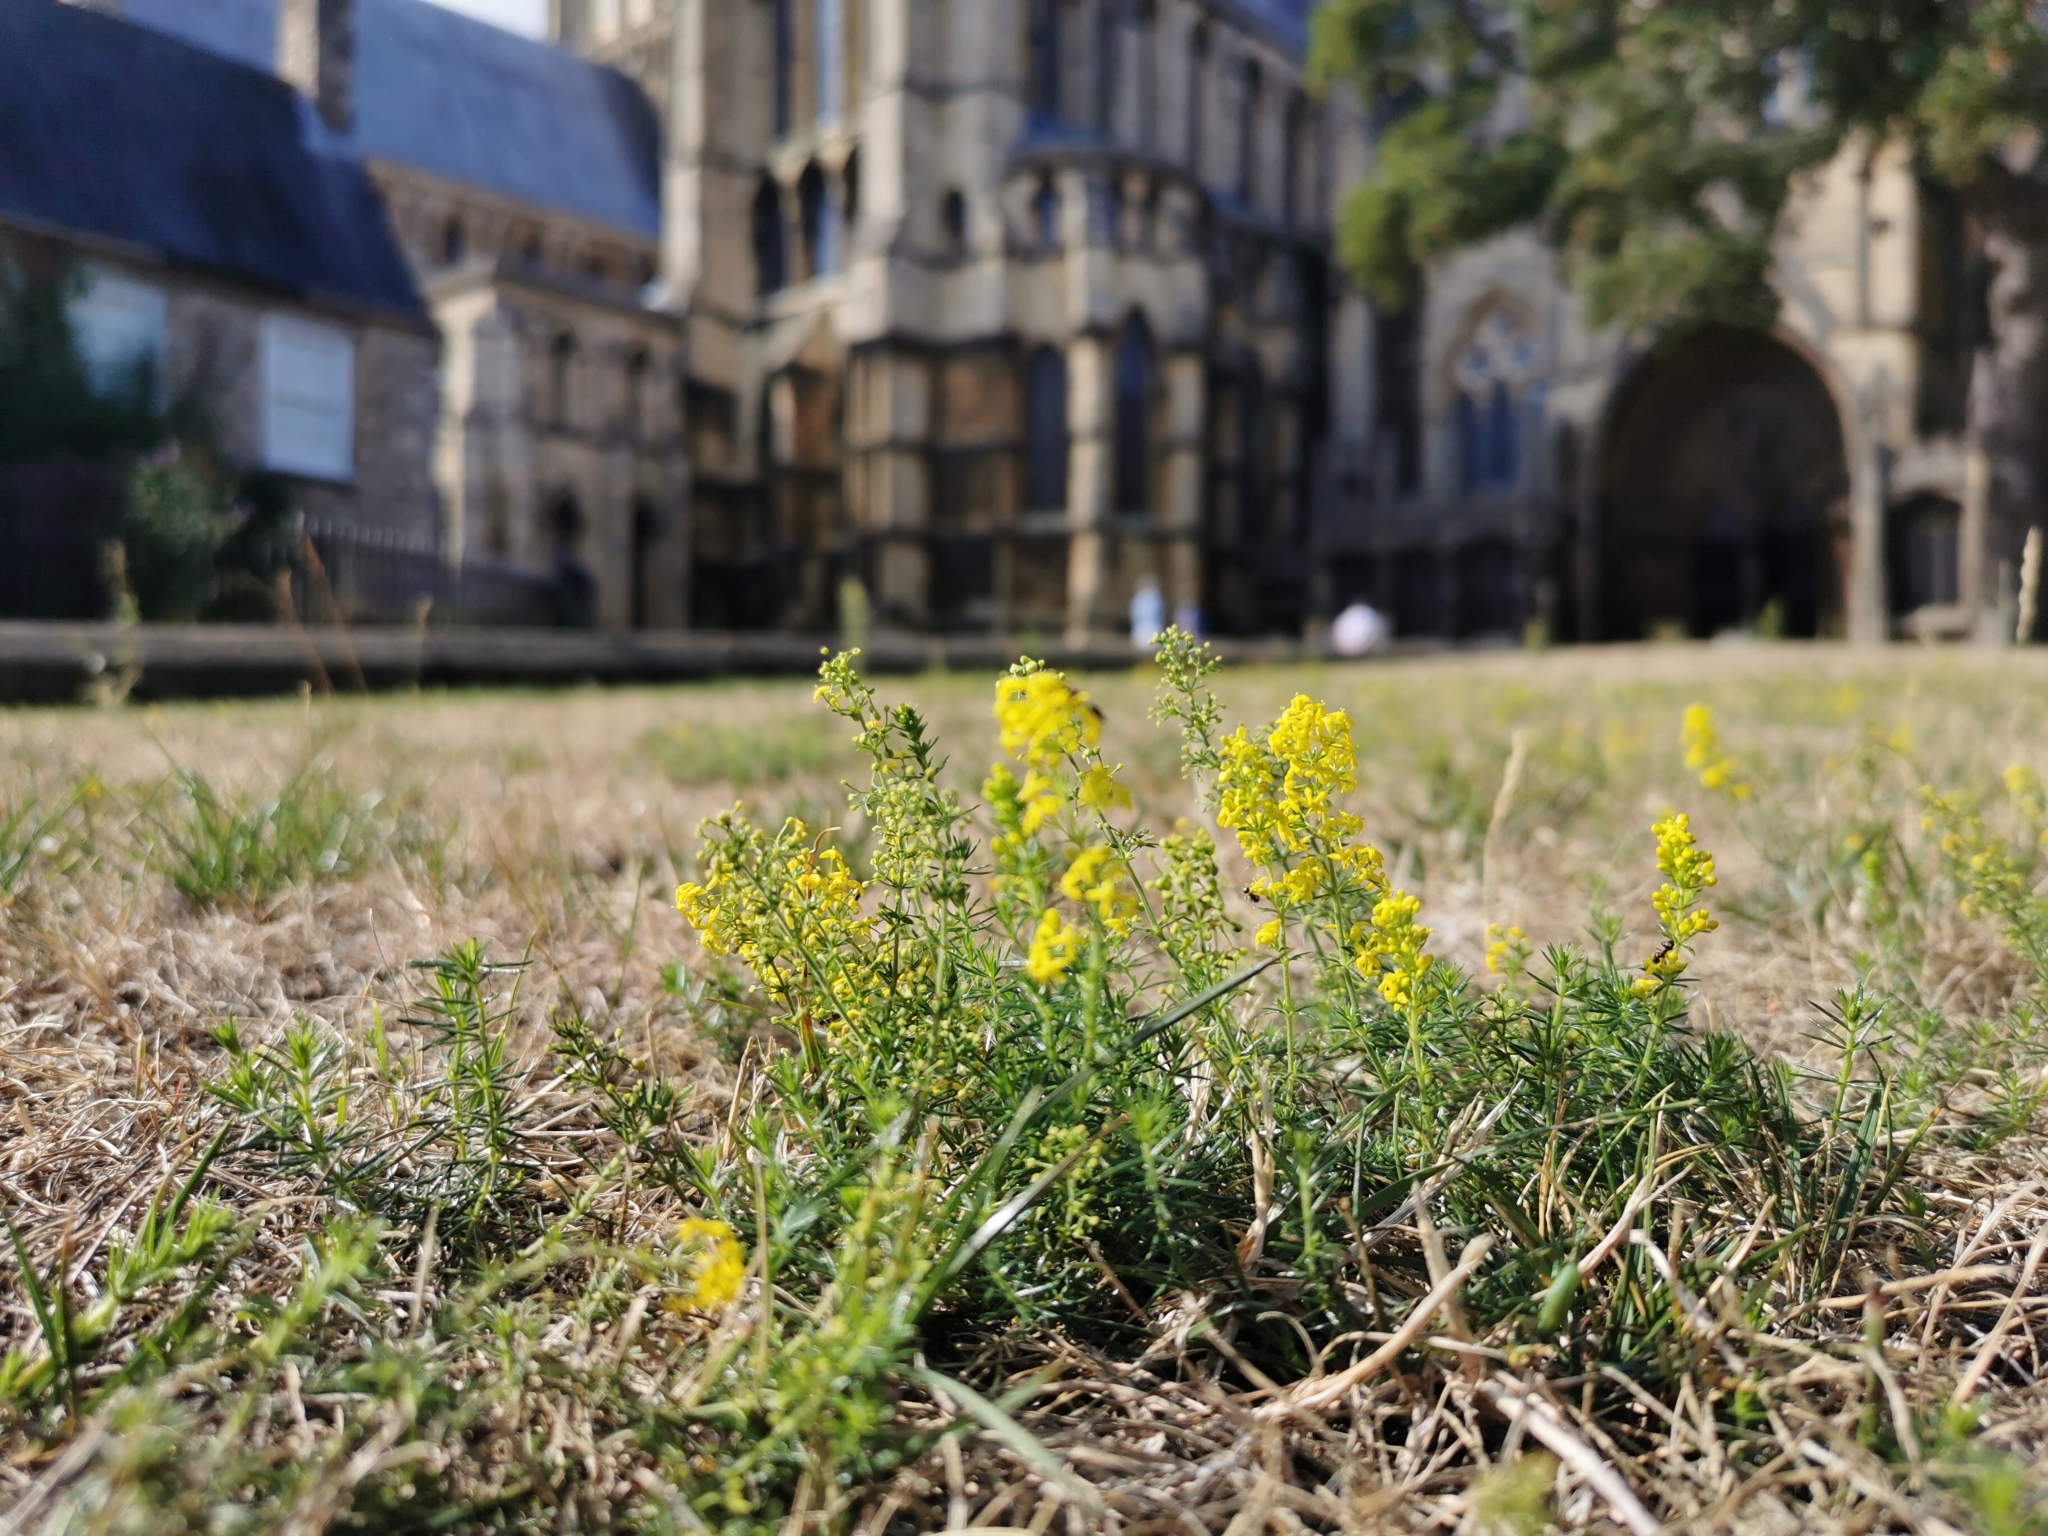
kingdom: Plantae
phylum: Tracheophyta
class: Magnoliopsida
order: Gentianales
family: Rubiaceae
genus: Galium
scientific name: Galium verum
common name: Lady's bedstraw
